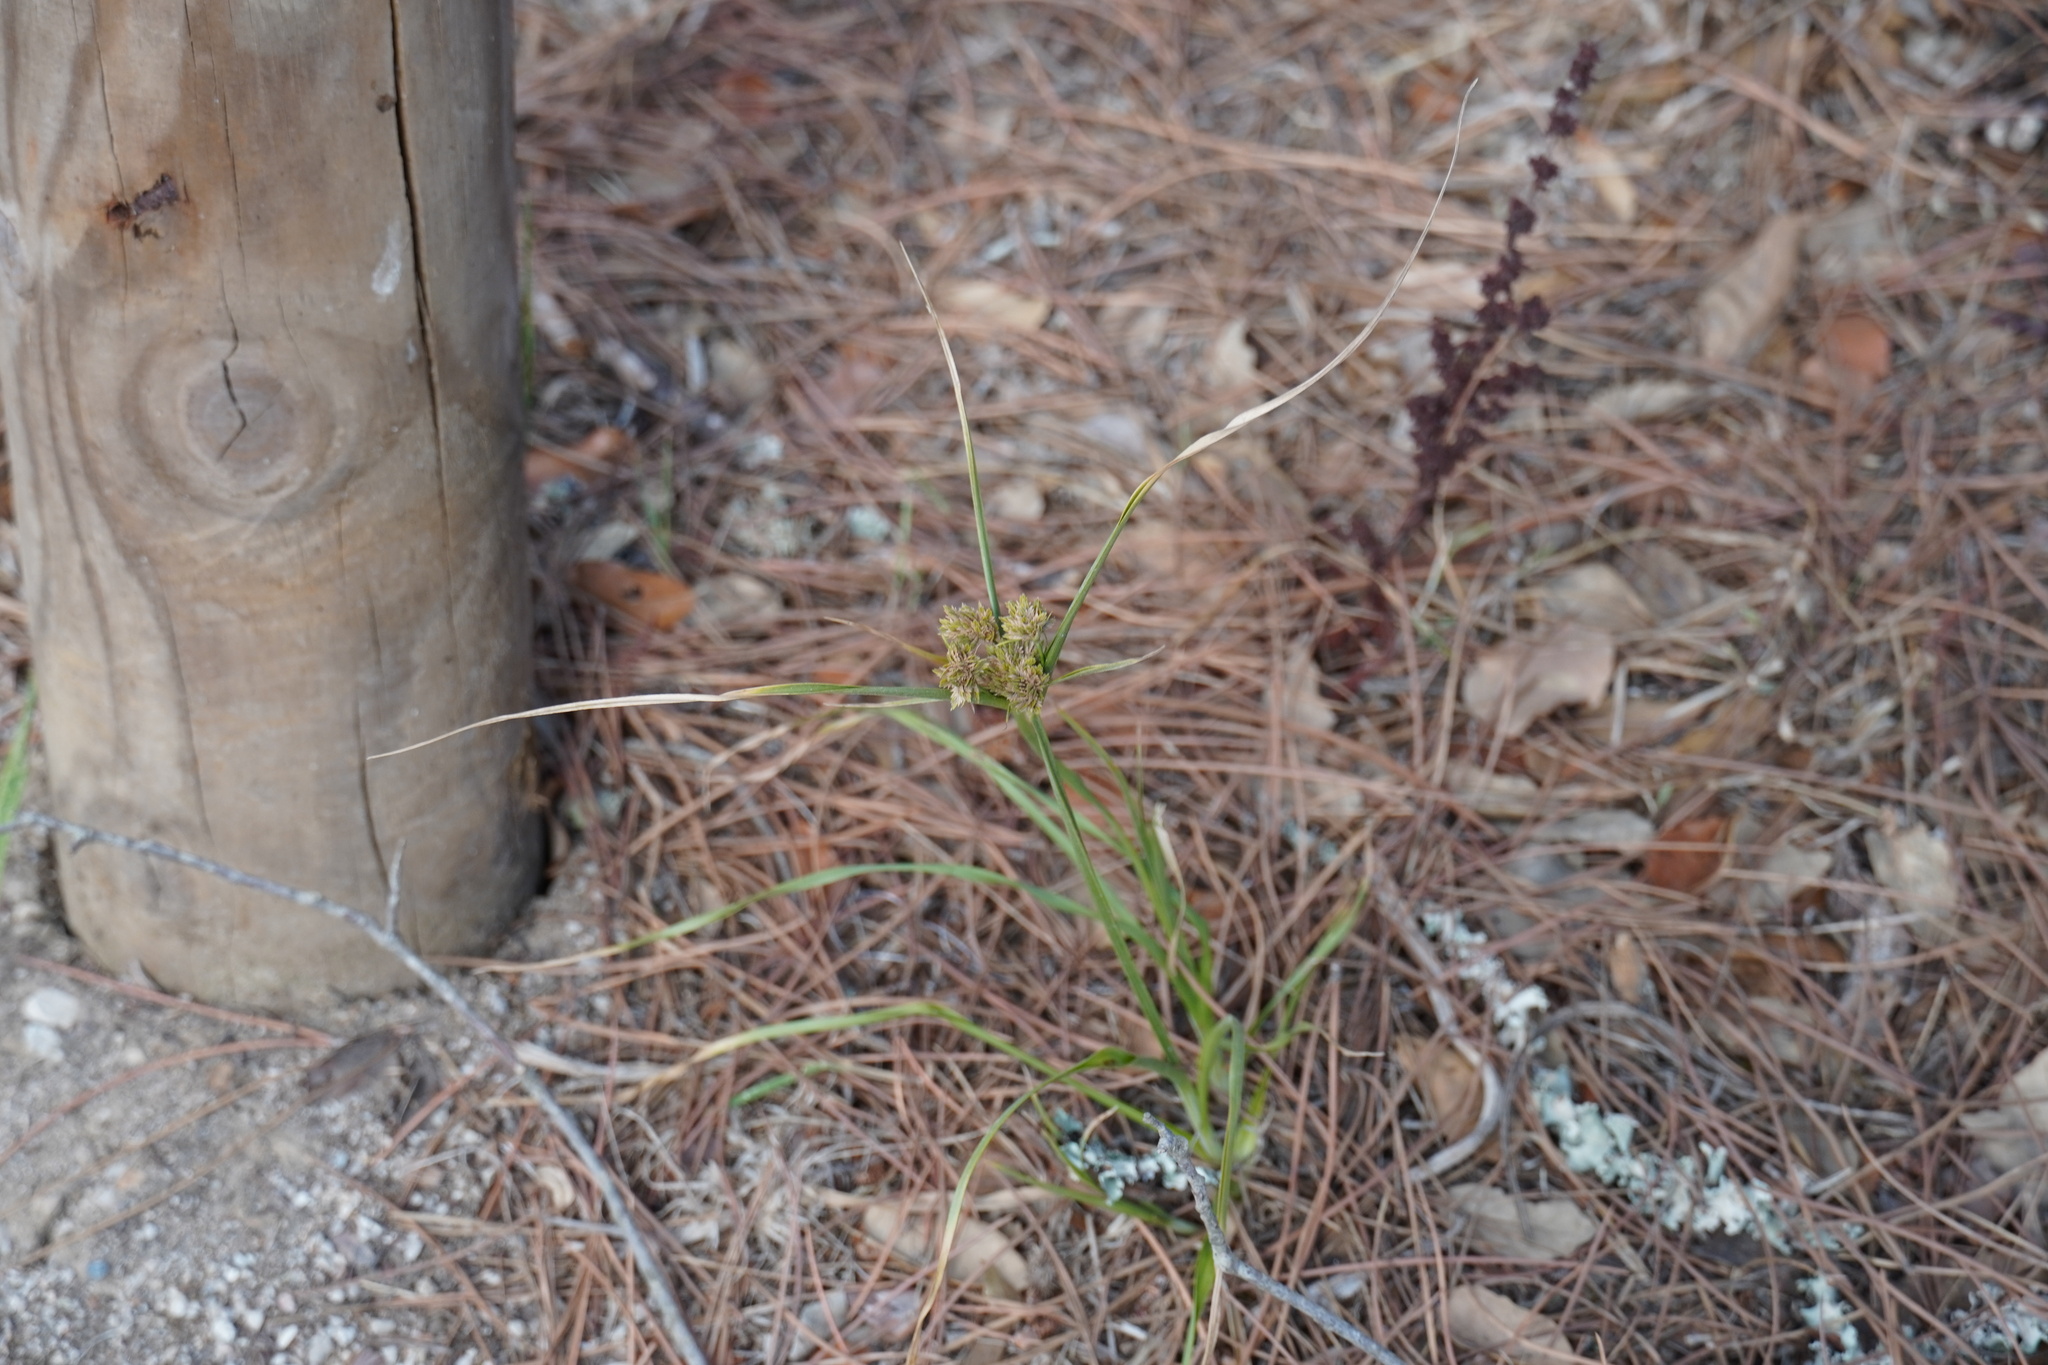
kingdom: Plantae
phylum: Tracheophyta
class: Liliopsida
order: Poales
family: Cyperaceae
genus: Cyperus
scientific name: Cyperus eragrostis
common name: Tall flatsedge
